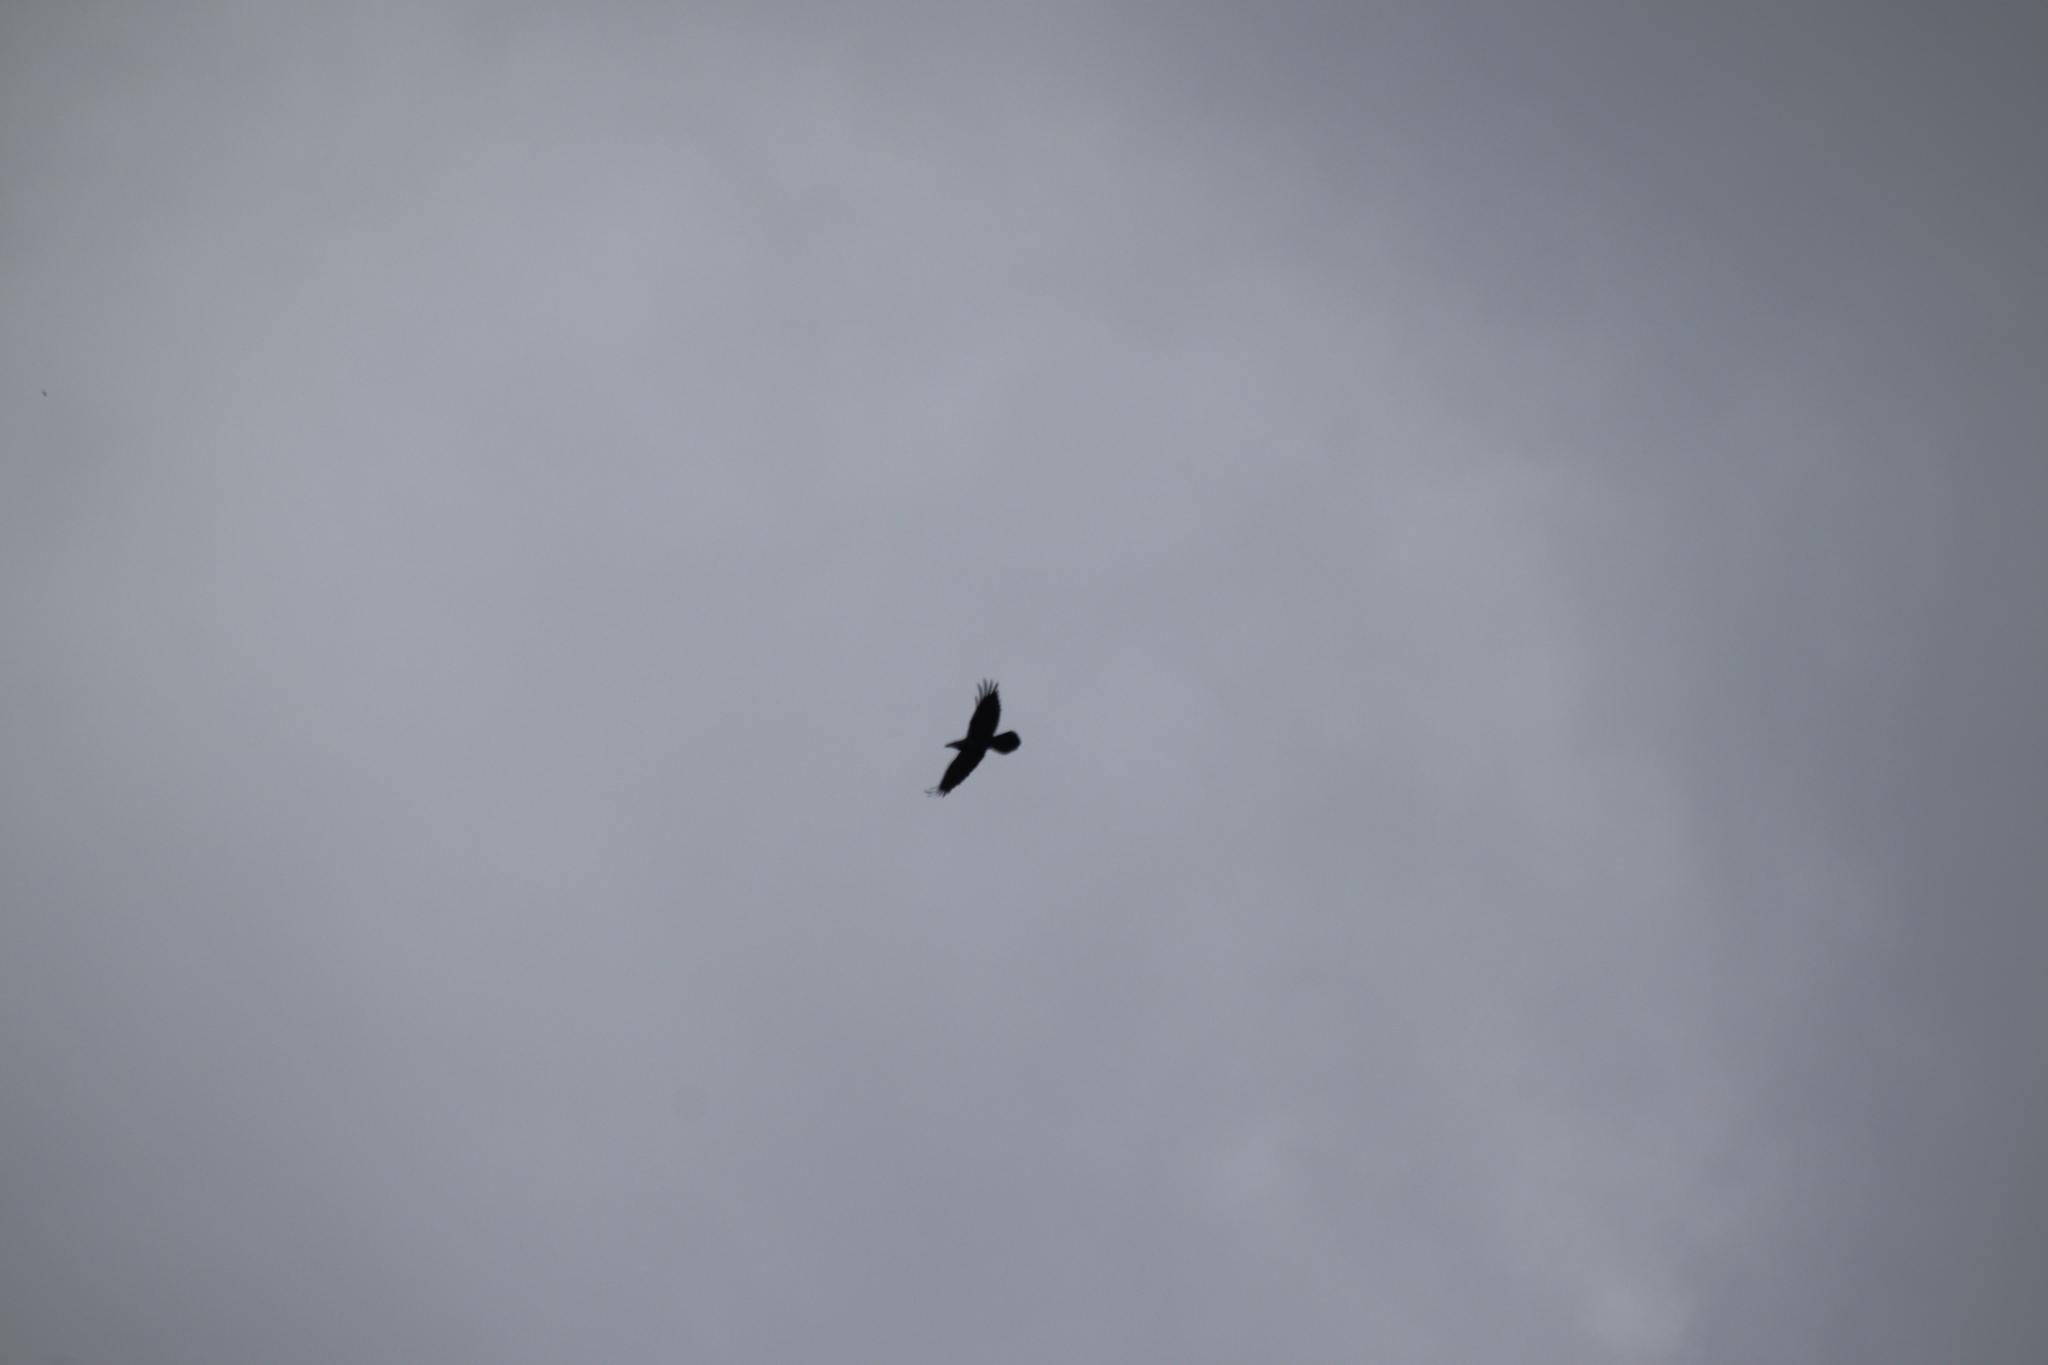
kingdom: Animalia
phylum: Chordata
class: Aves
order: Passeriformes
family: Corvidae
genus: Corvus
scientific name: Corvus corax
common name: Common raven
